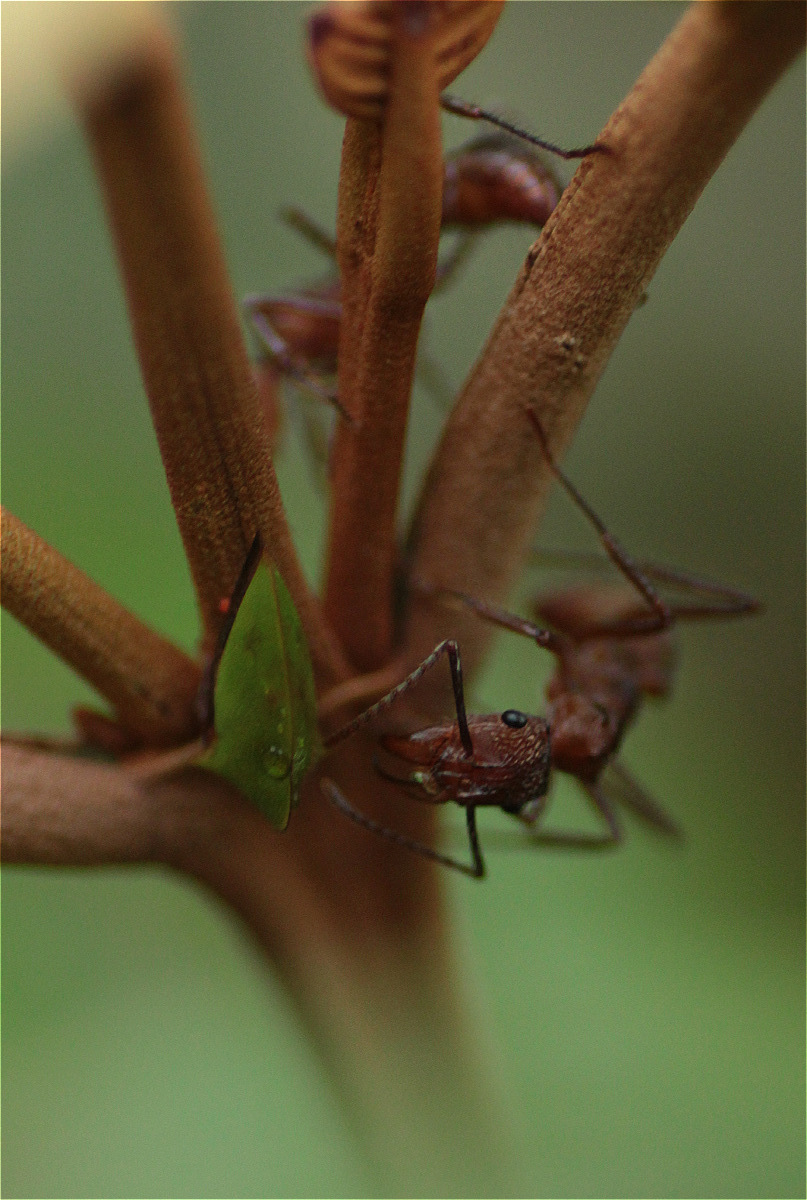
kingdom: Animalia
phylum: Arthropoda
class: Insecta
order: Hymenoptera
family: Formicidae
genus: Ectatomma
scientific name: Ectatomma tuberculatum
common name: Ant
